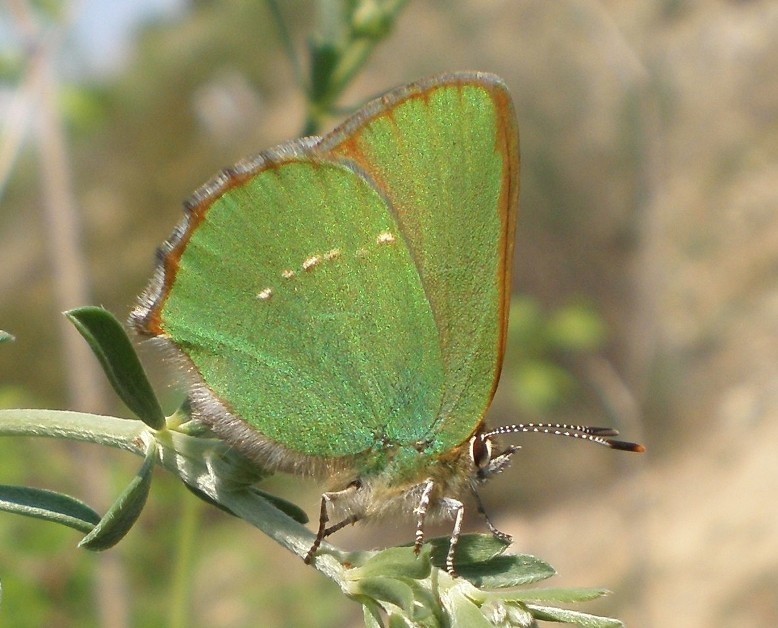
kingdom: Animalia
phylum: Arthropoda
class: Insecta
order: Lepidoptera
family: Lycaenidae
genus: Callophrys
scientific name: Callophrys rubi
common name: Green hairstreak
